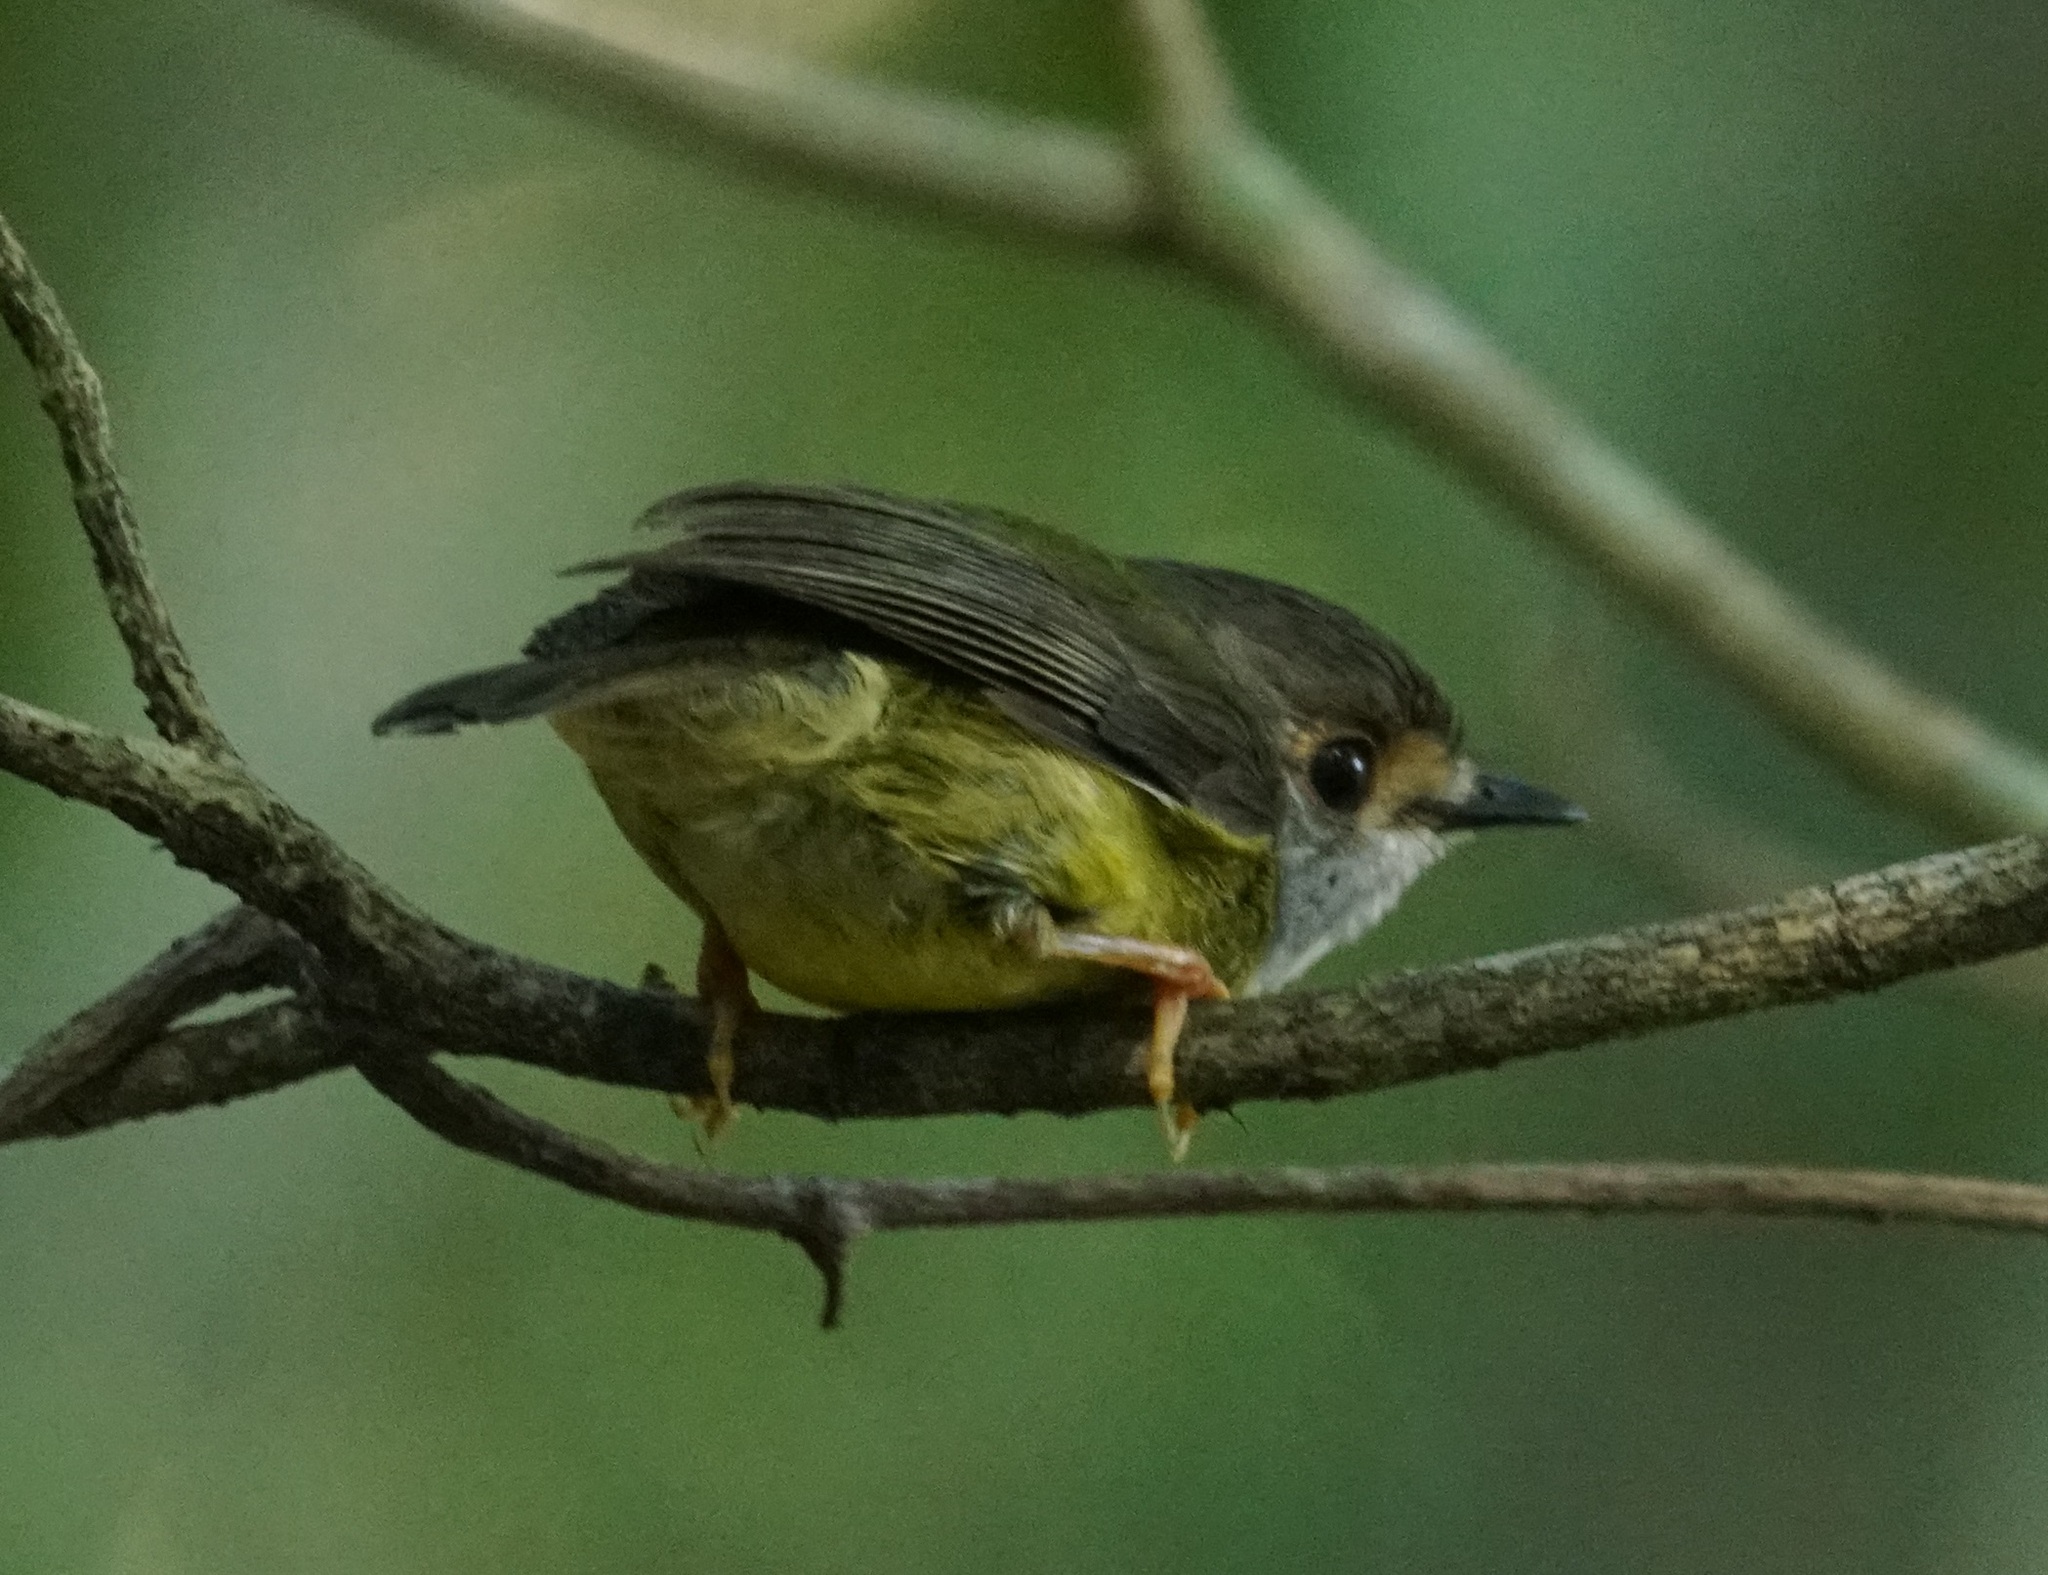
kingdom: Animalia
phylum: Chordata
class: Aves
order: Passeriformes
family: Petroicidae
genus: Eopsaltria
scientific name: Eopsaltria
